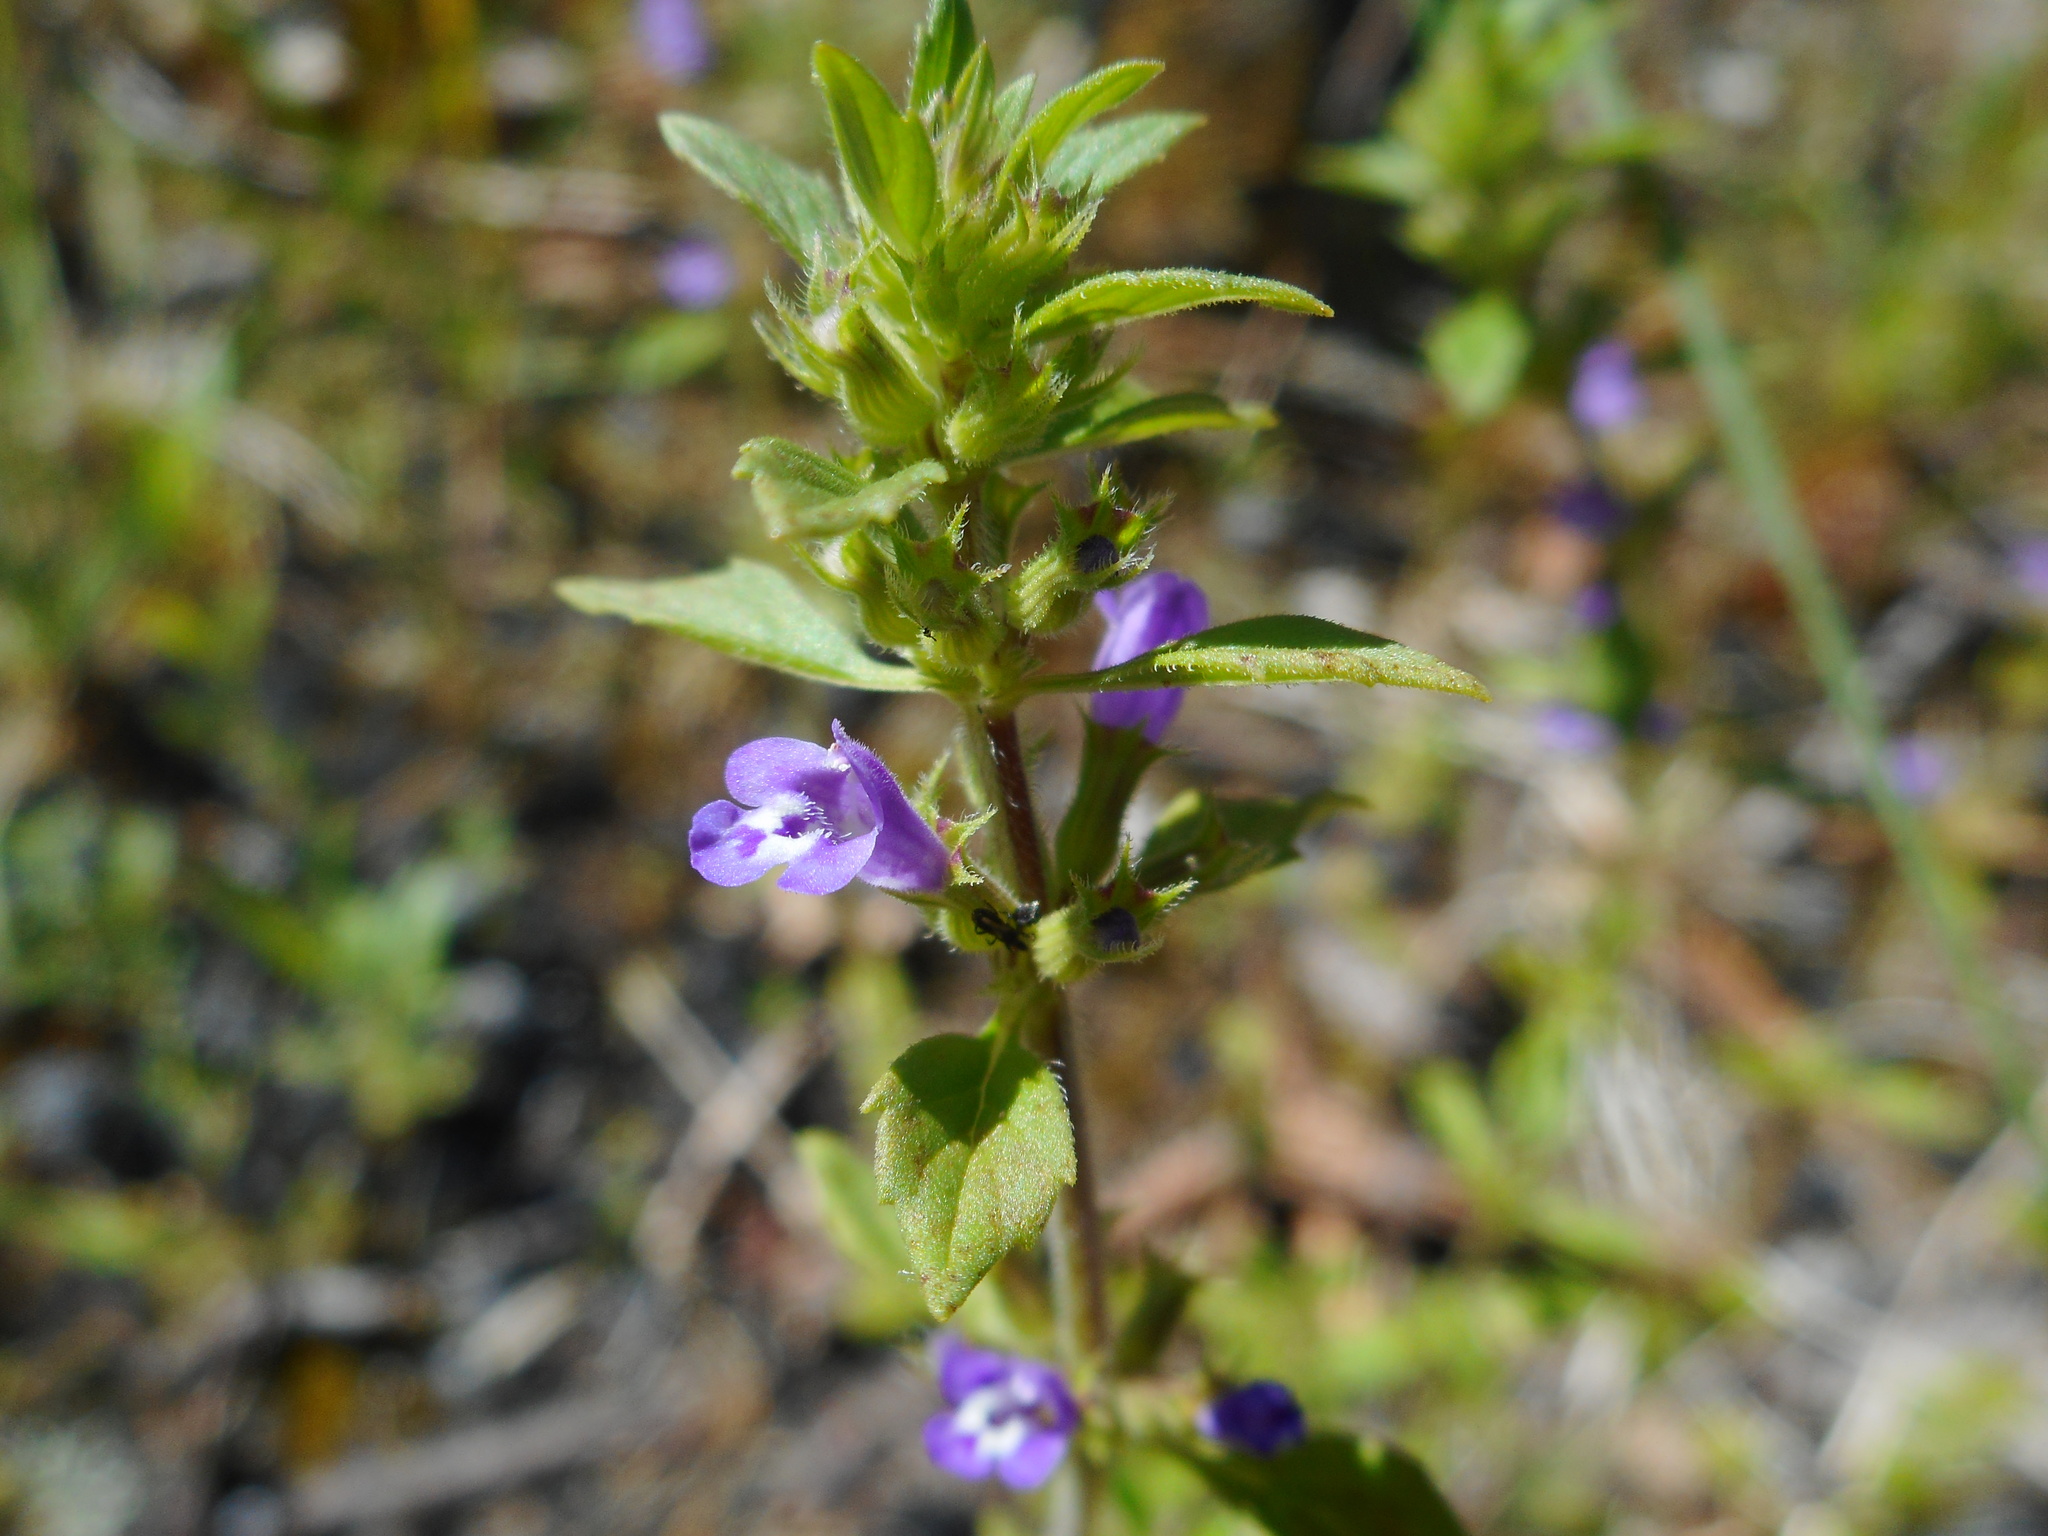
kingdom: Plantae
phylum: Tracheophyta
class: Magnoliopsida
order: Lamiales
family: Lamiaceae
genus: Clinopodium
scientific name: Clinopodium acinos
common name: Basil thyme
